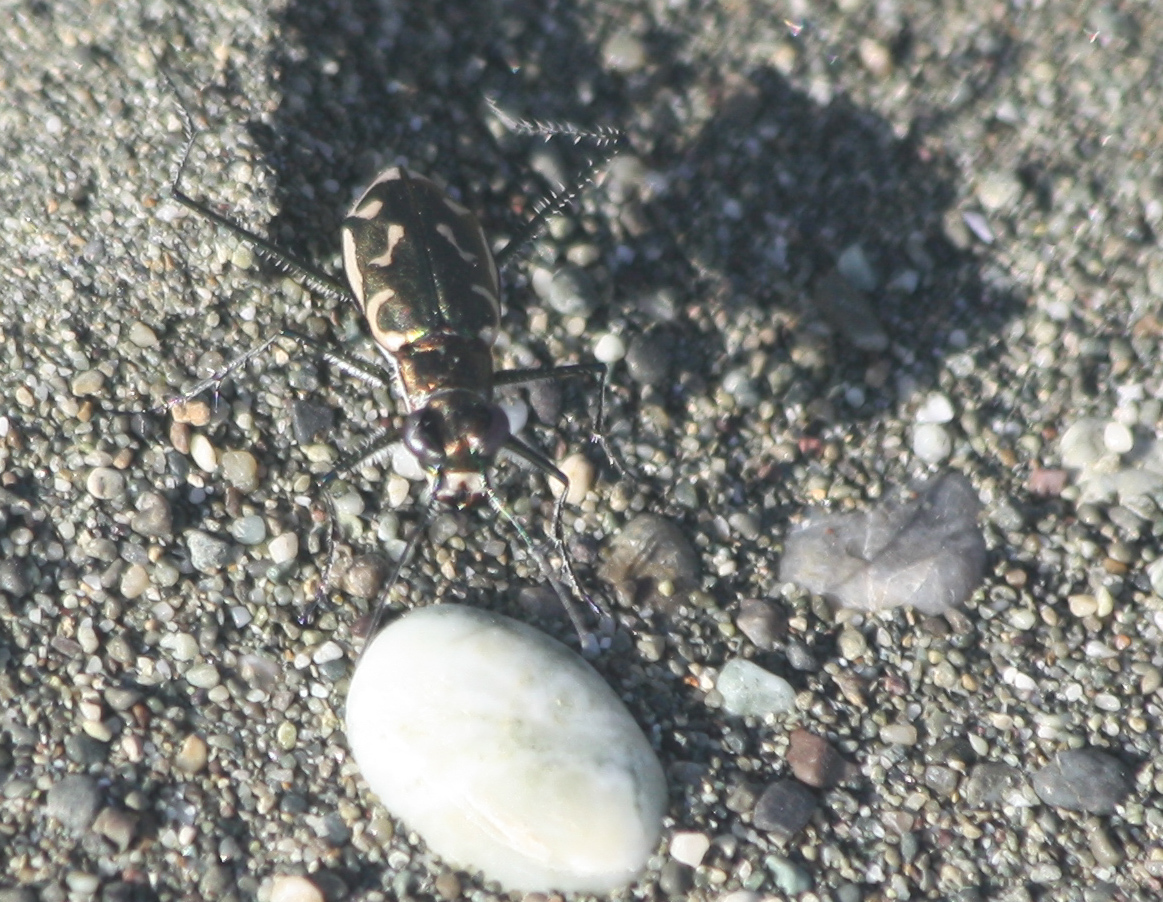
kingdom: Animalia
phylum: Arthropoda
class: Insecta
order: Coleoptera
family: Carabidae
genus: Opilidia
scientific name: Opilidia macrocnema
